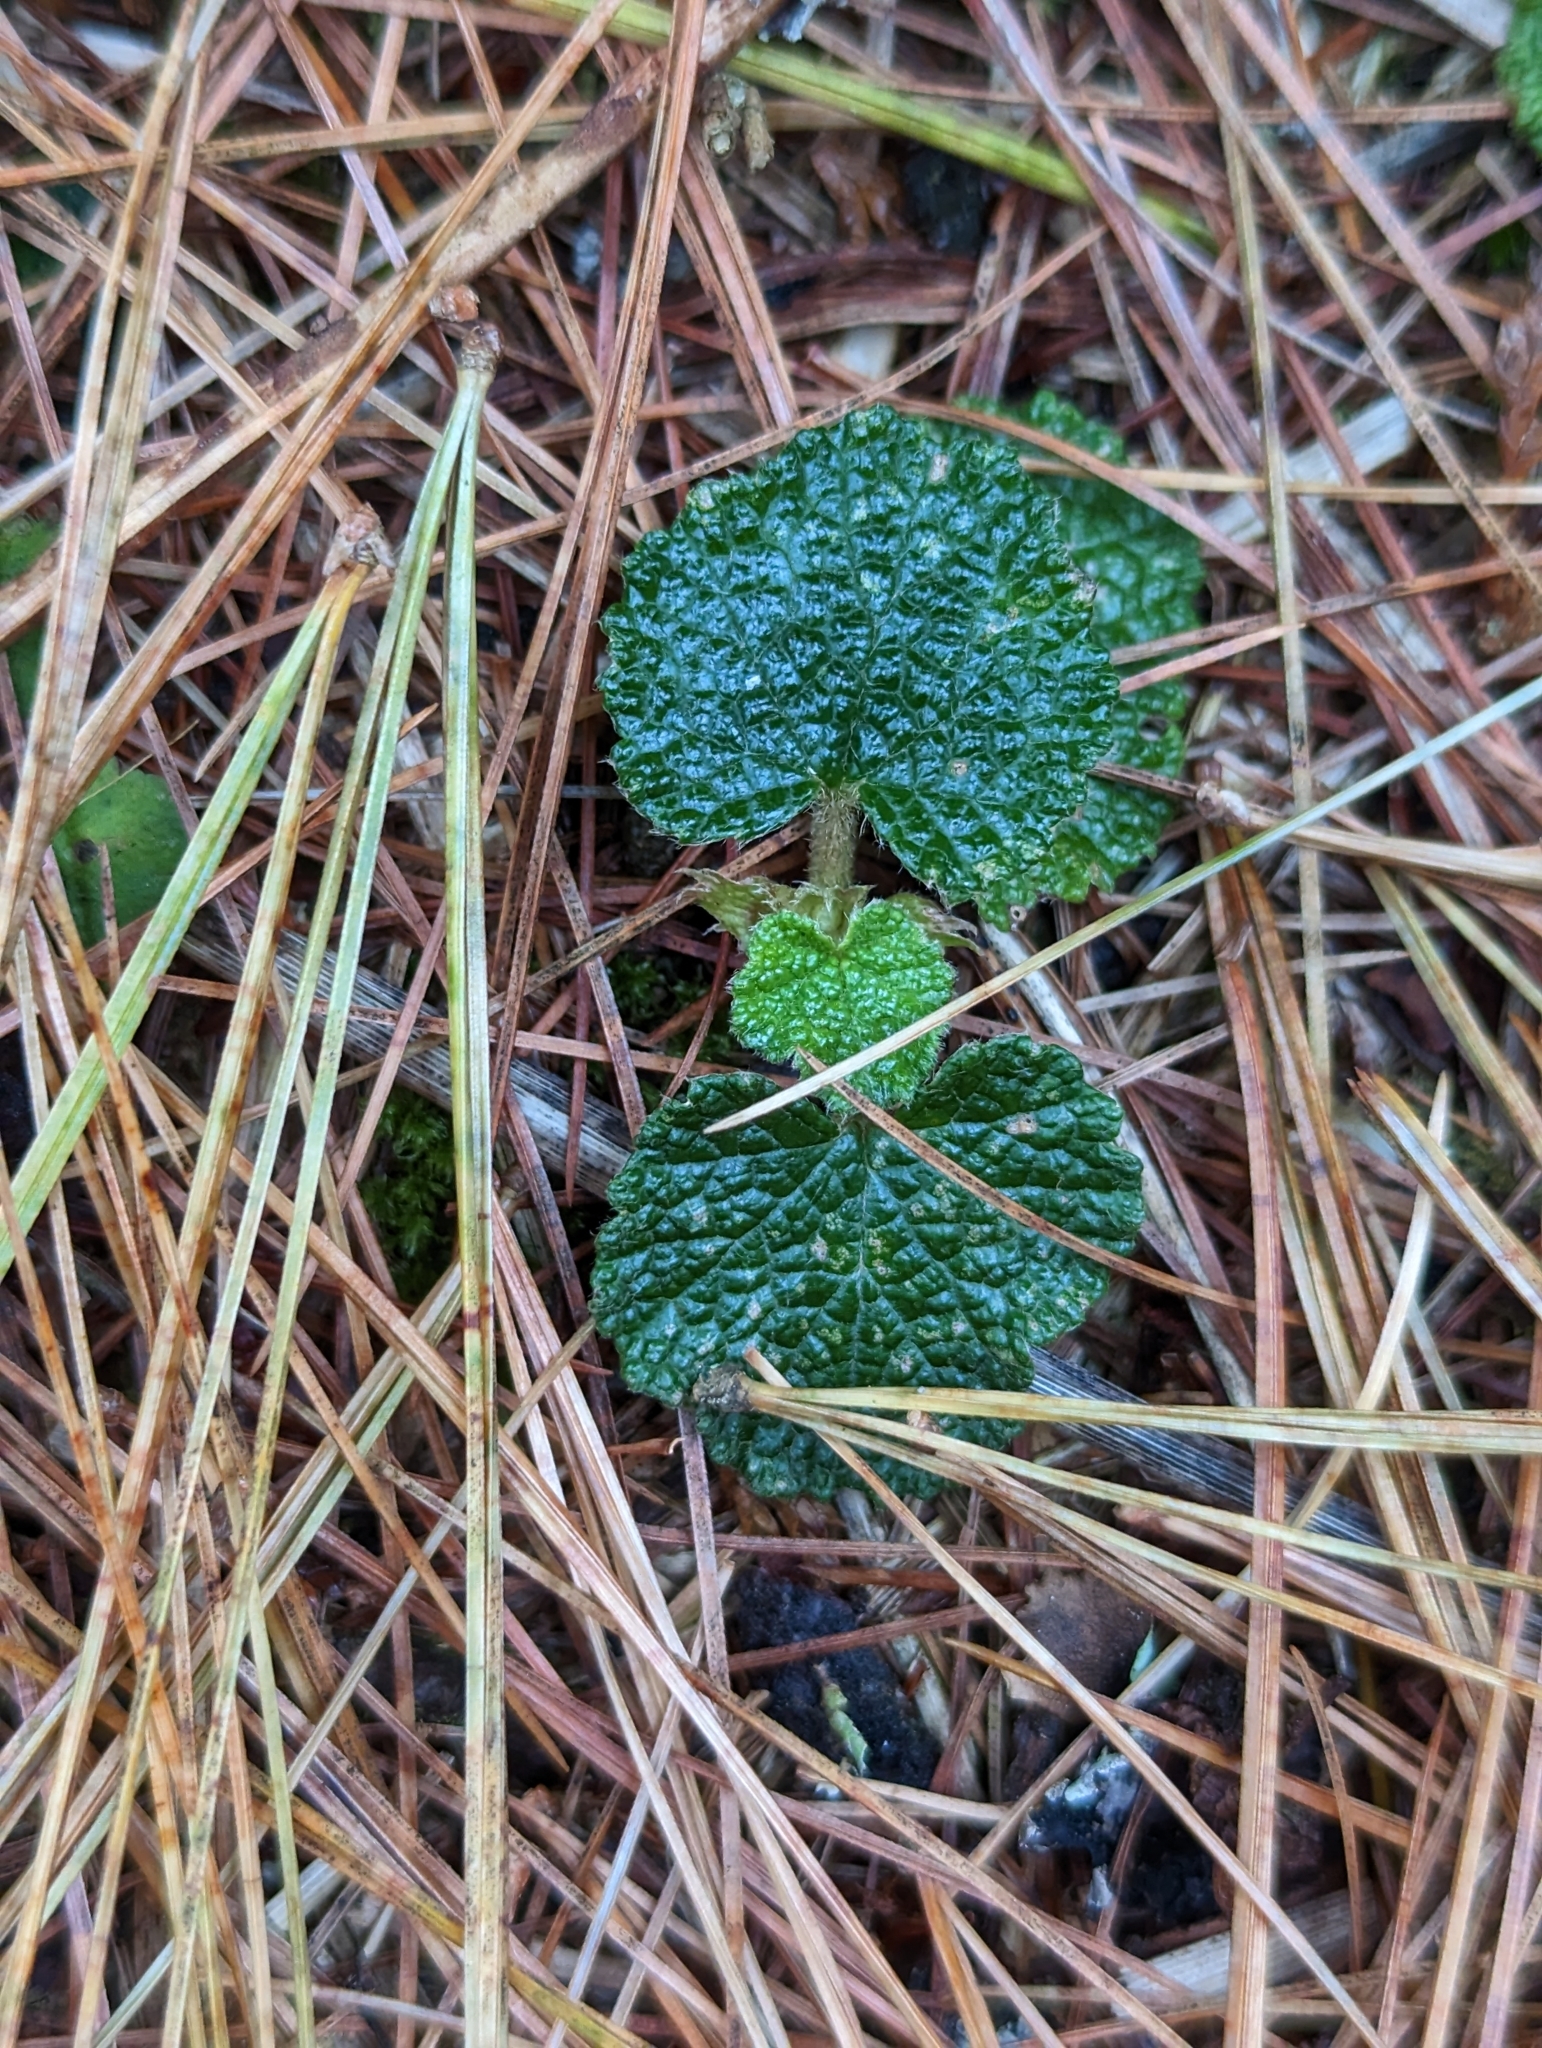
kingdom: Plantae
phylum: Tracheophyta
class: Magnoliopsida
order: Rosales
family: Rosaceae
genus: Rubus
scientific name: Rubus rolfei
